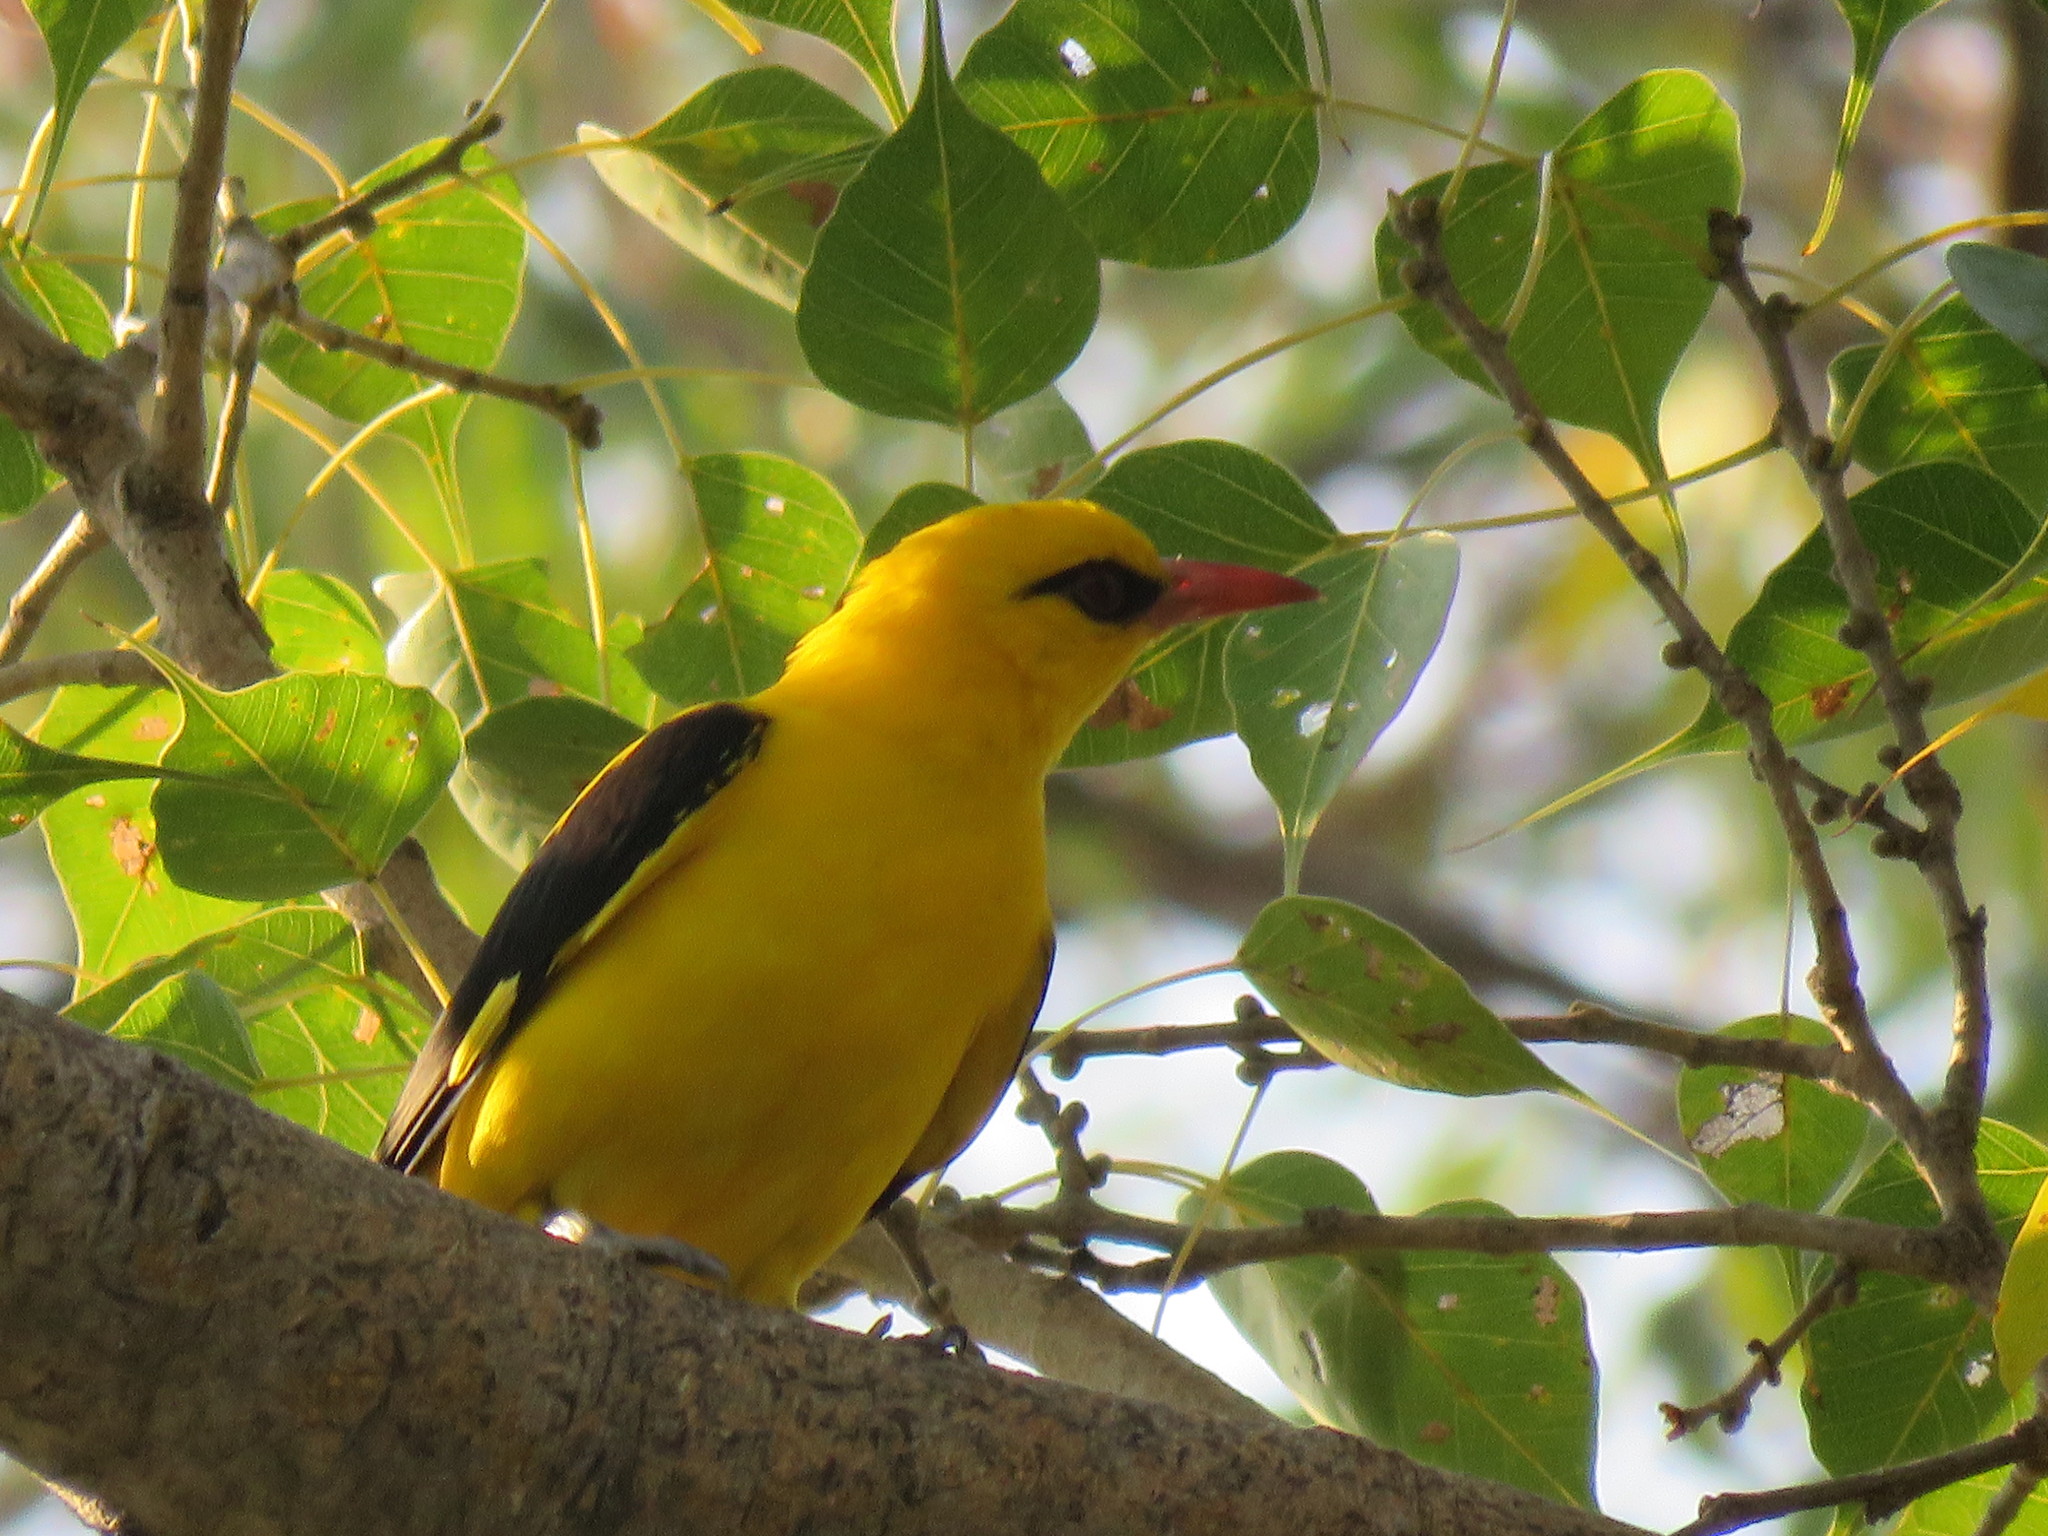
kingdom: Animalia
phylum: Chordata
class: Aves
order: Passeriformes
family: Oriolidae
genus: Oriolus
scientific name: Oriolus kundoo
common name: Indian golden oriole
